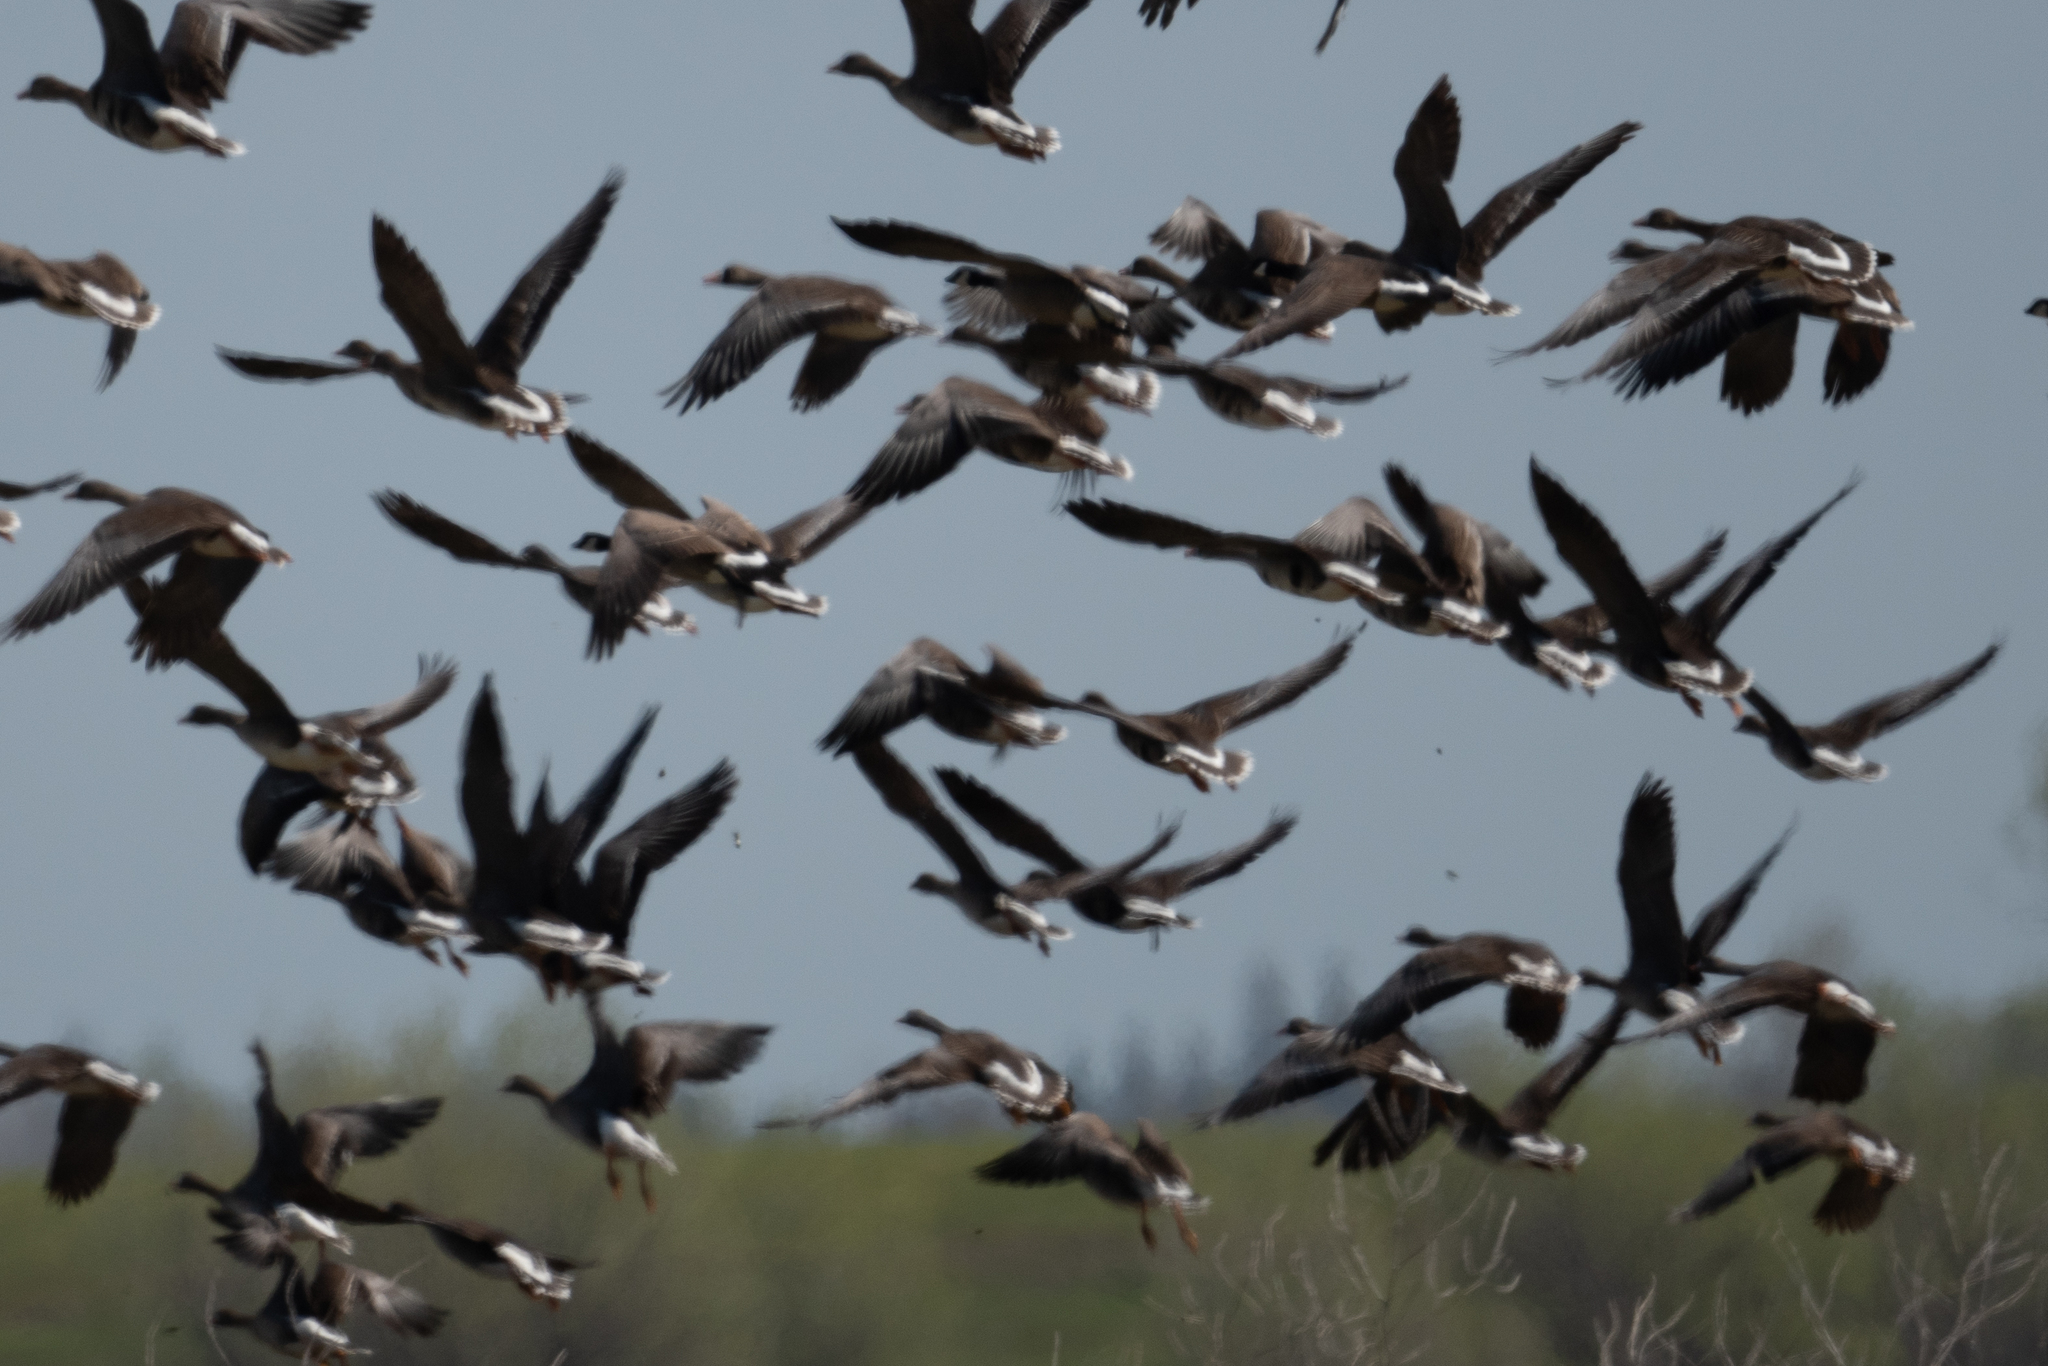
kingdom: Animalia
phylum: Chordata
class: Aves
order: Anseriformes
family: Anatidae
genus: Anser
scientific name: Anser albifrons
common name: Greater white-fronted goose
